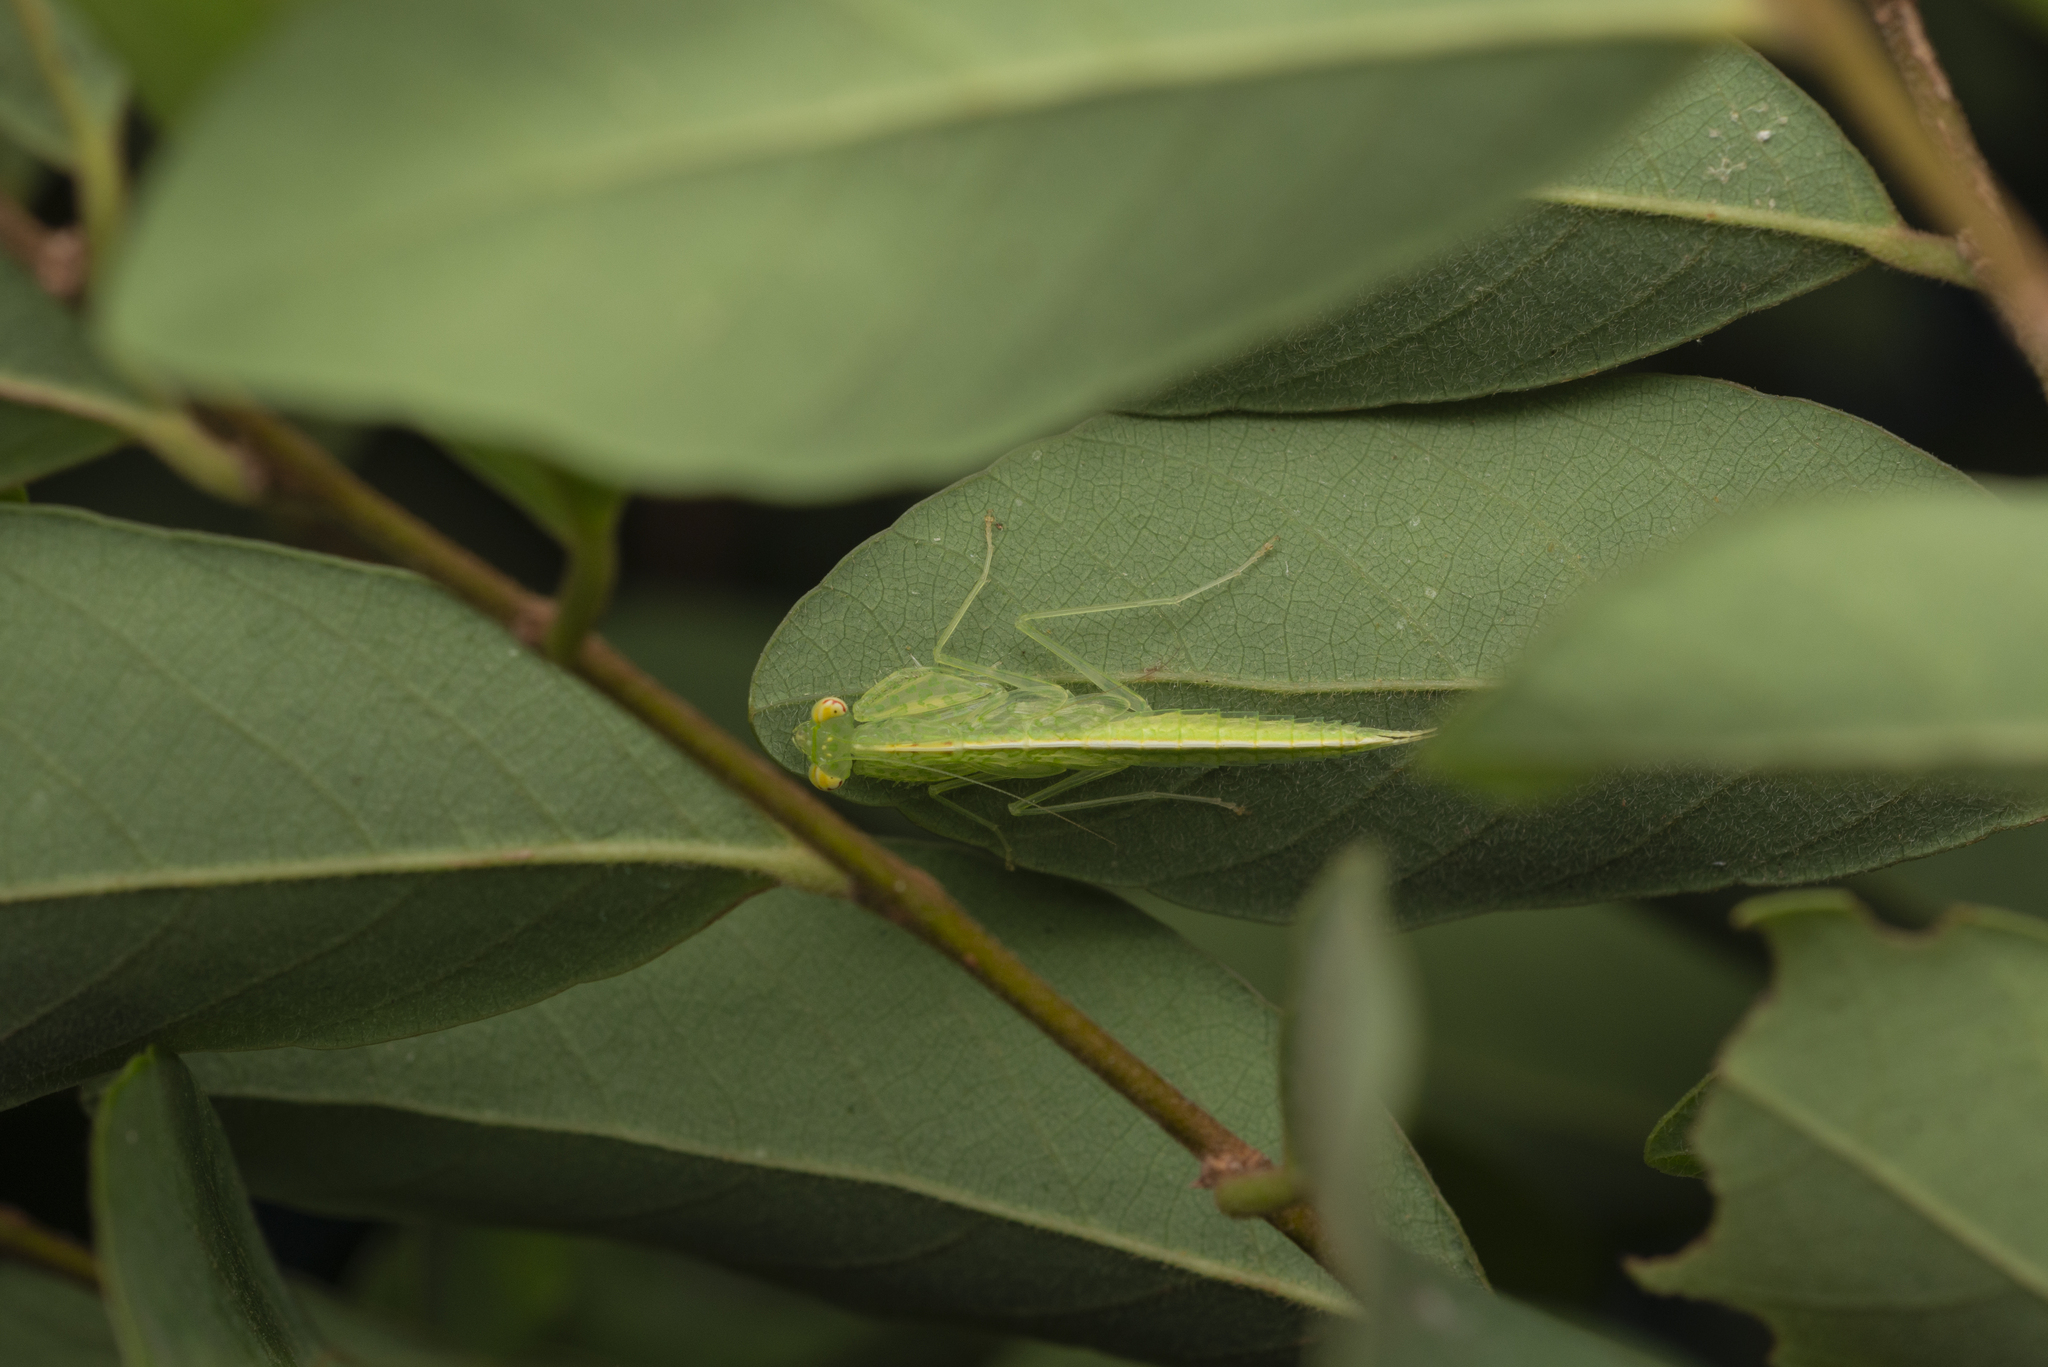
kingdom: Animalia
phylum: Arthropoda
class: Insecta
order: Mantodea
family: Nanomantidae
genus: Tropidomantis
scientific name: Tropidomantis gressitti
